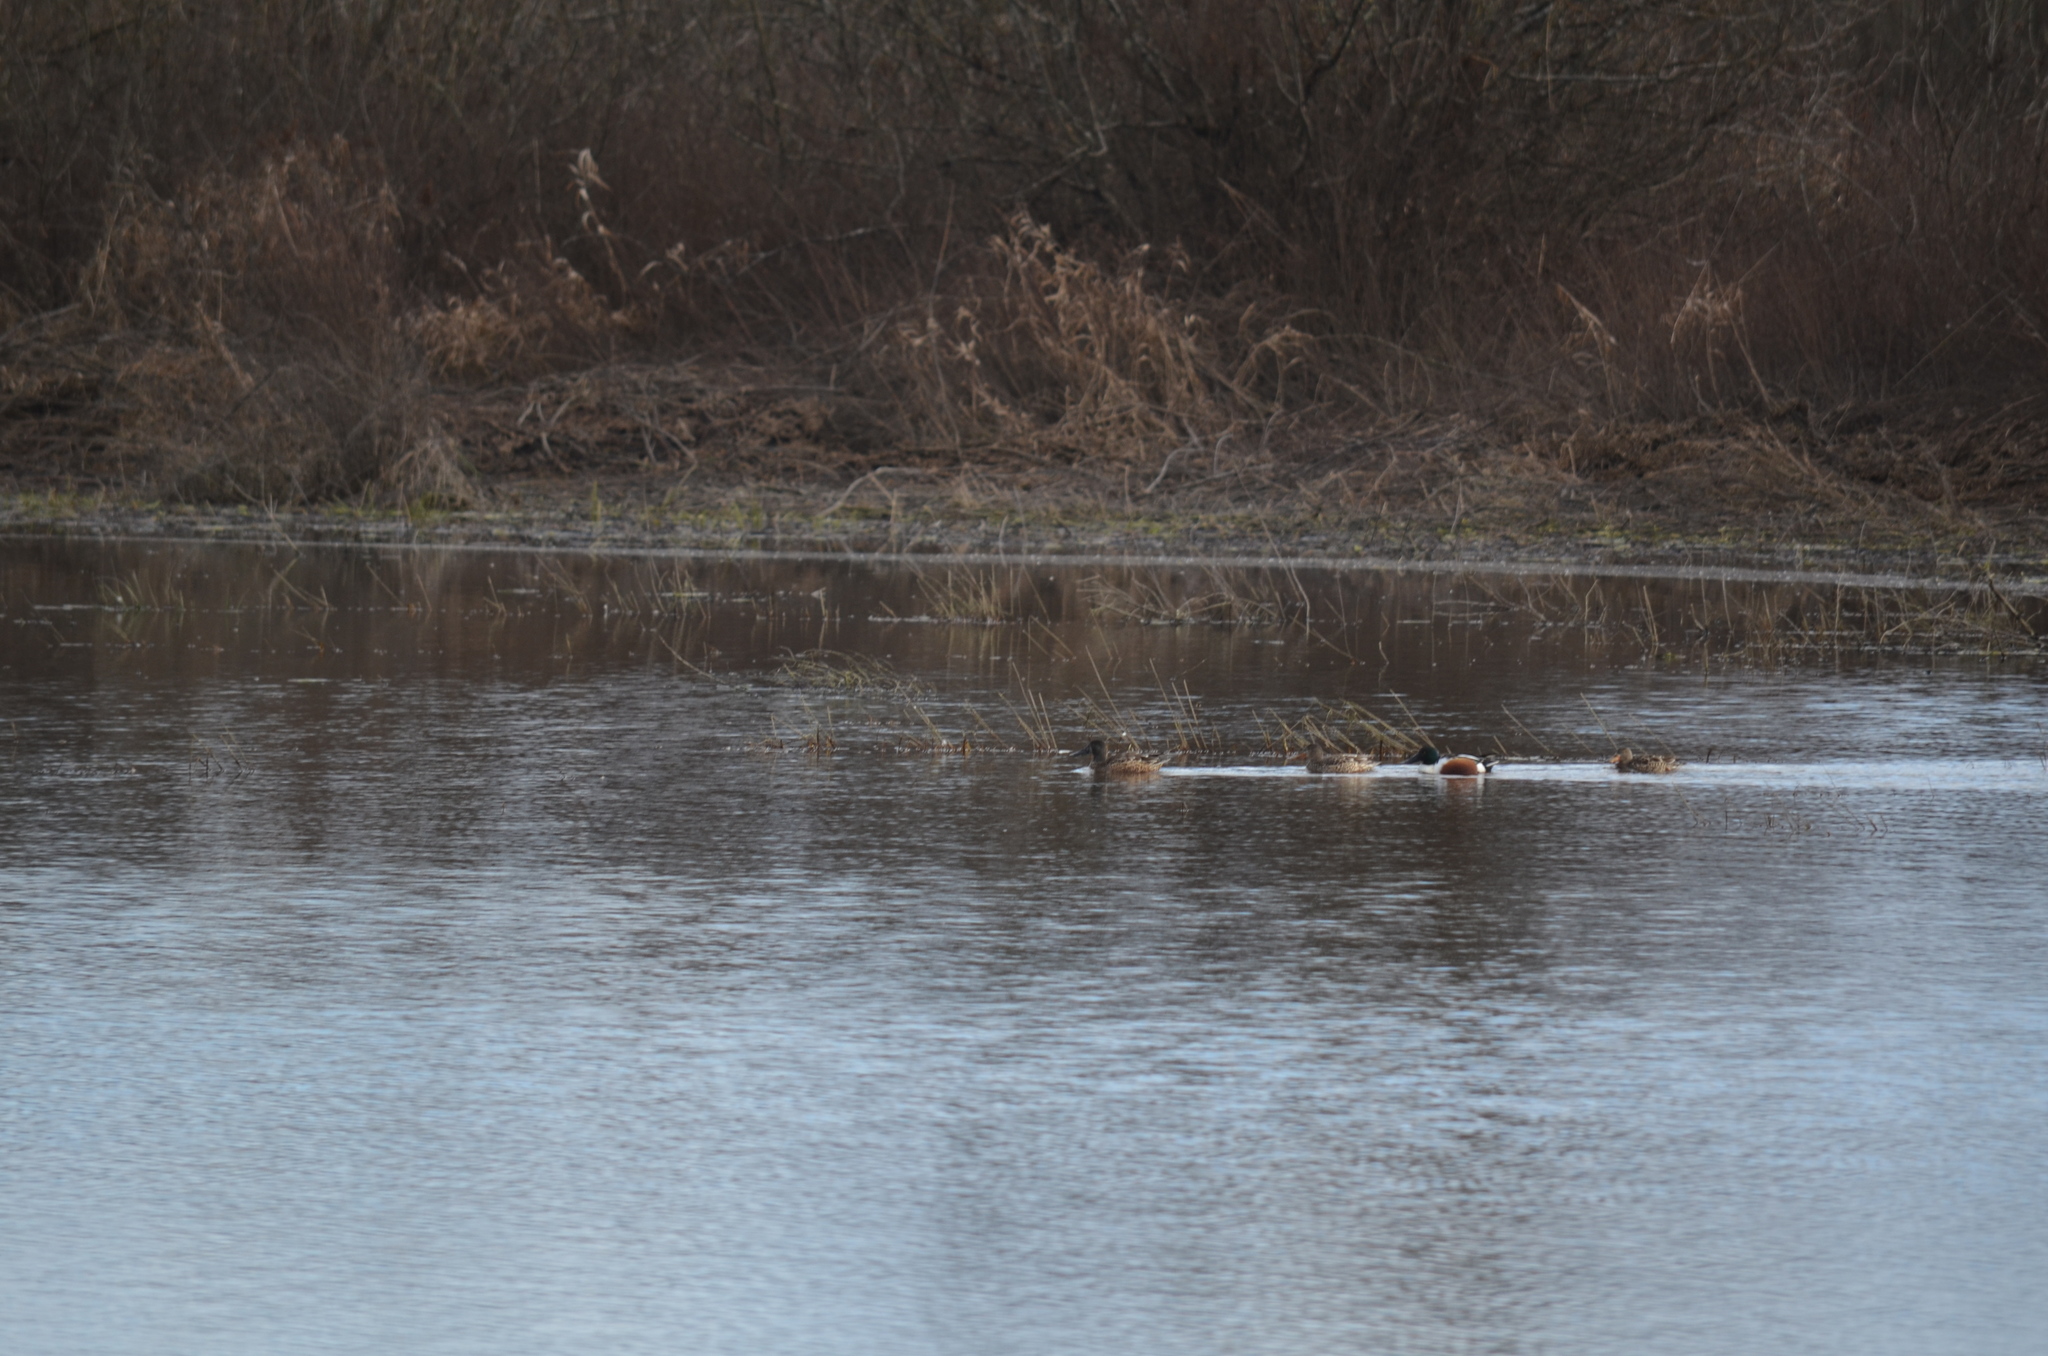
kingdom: Animalia
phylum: Chordata
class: Aves
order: Anseriformes
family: Anatidae
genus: Spatula
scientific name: Spatula clypeata
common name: Northern shoveler
